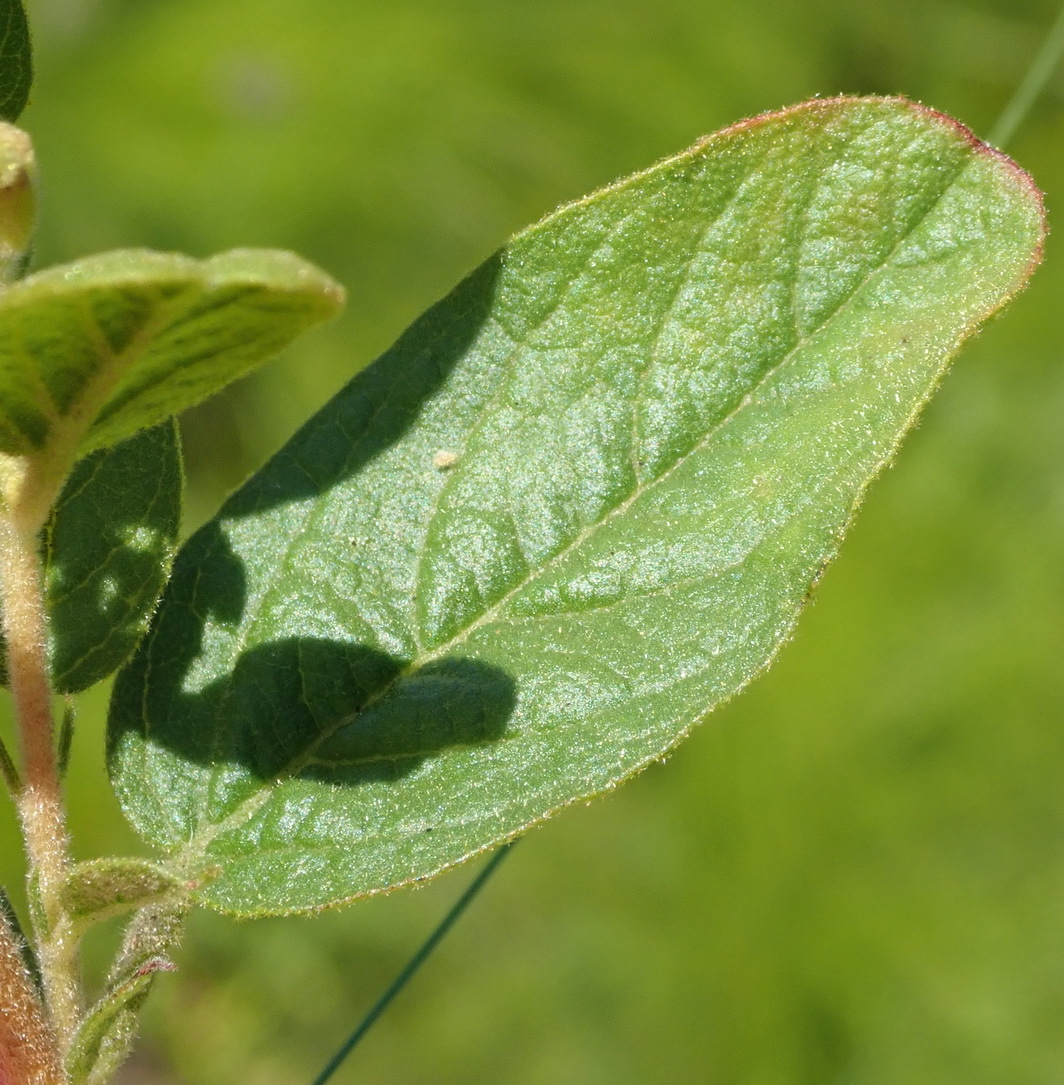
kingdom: Plantae
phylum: Tracheophyta
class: Magnoliopsida
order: Malvales
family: Malvaceae
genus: Hermannia
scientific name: Hermannia salviifolia
